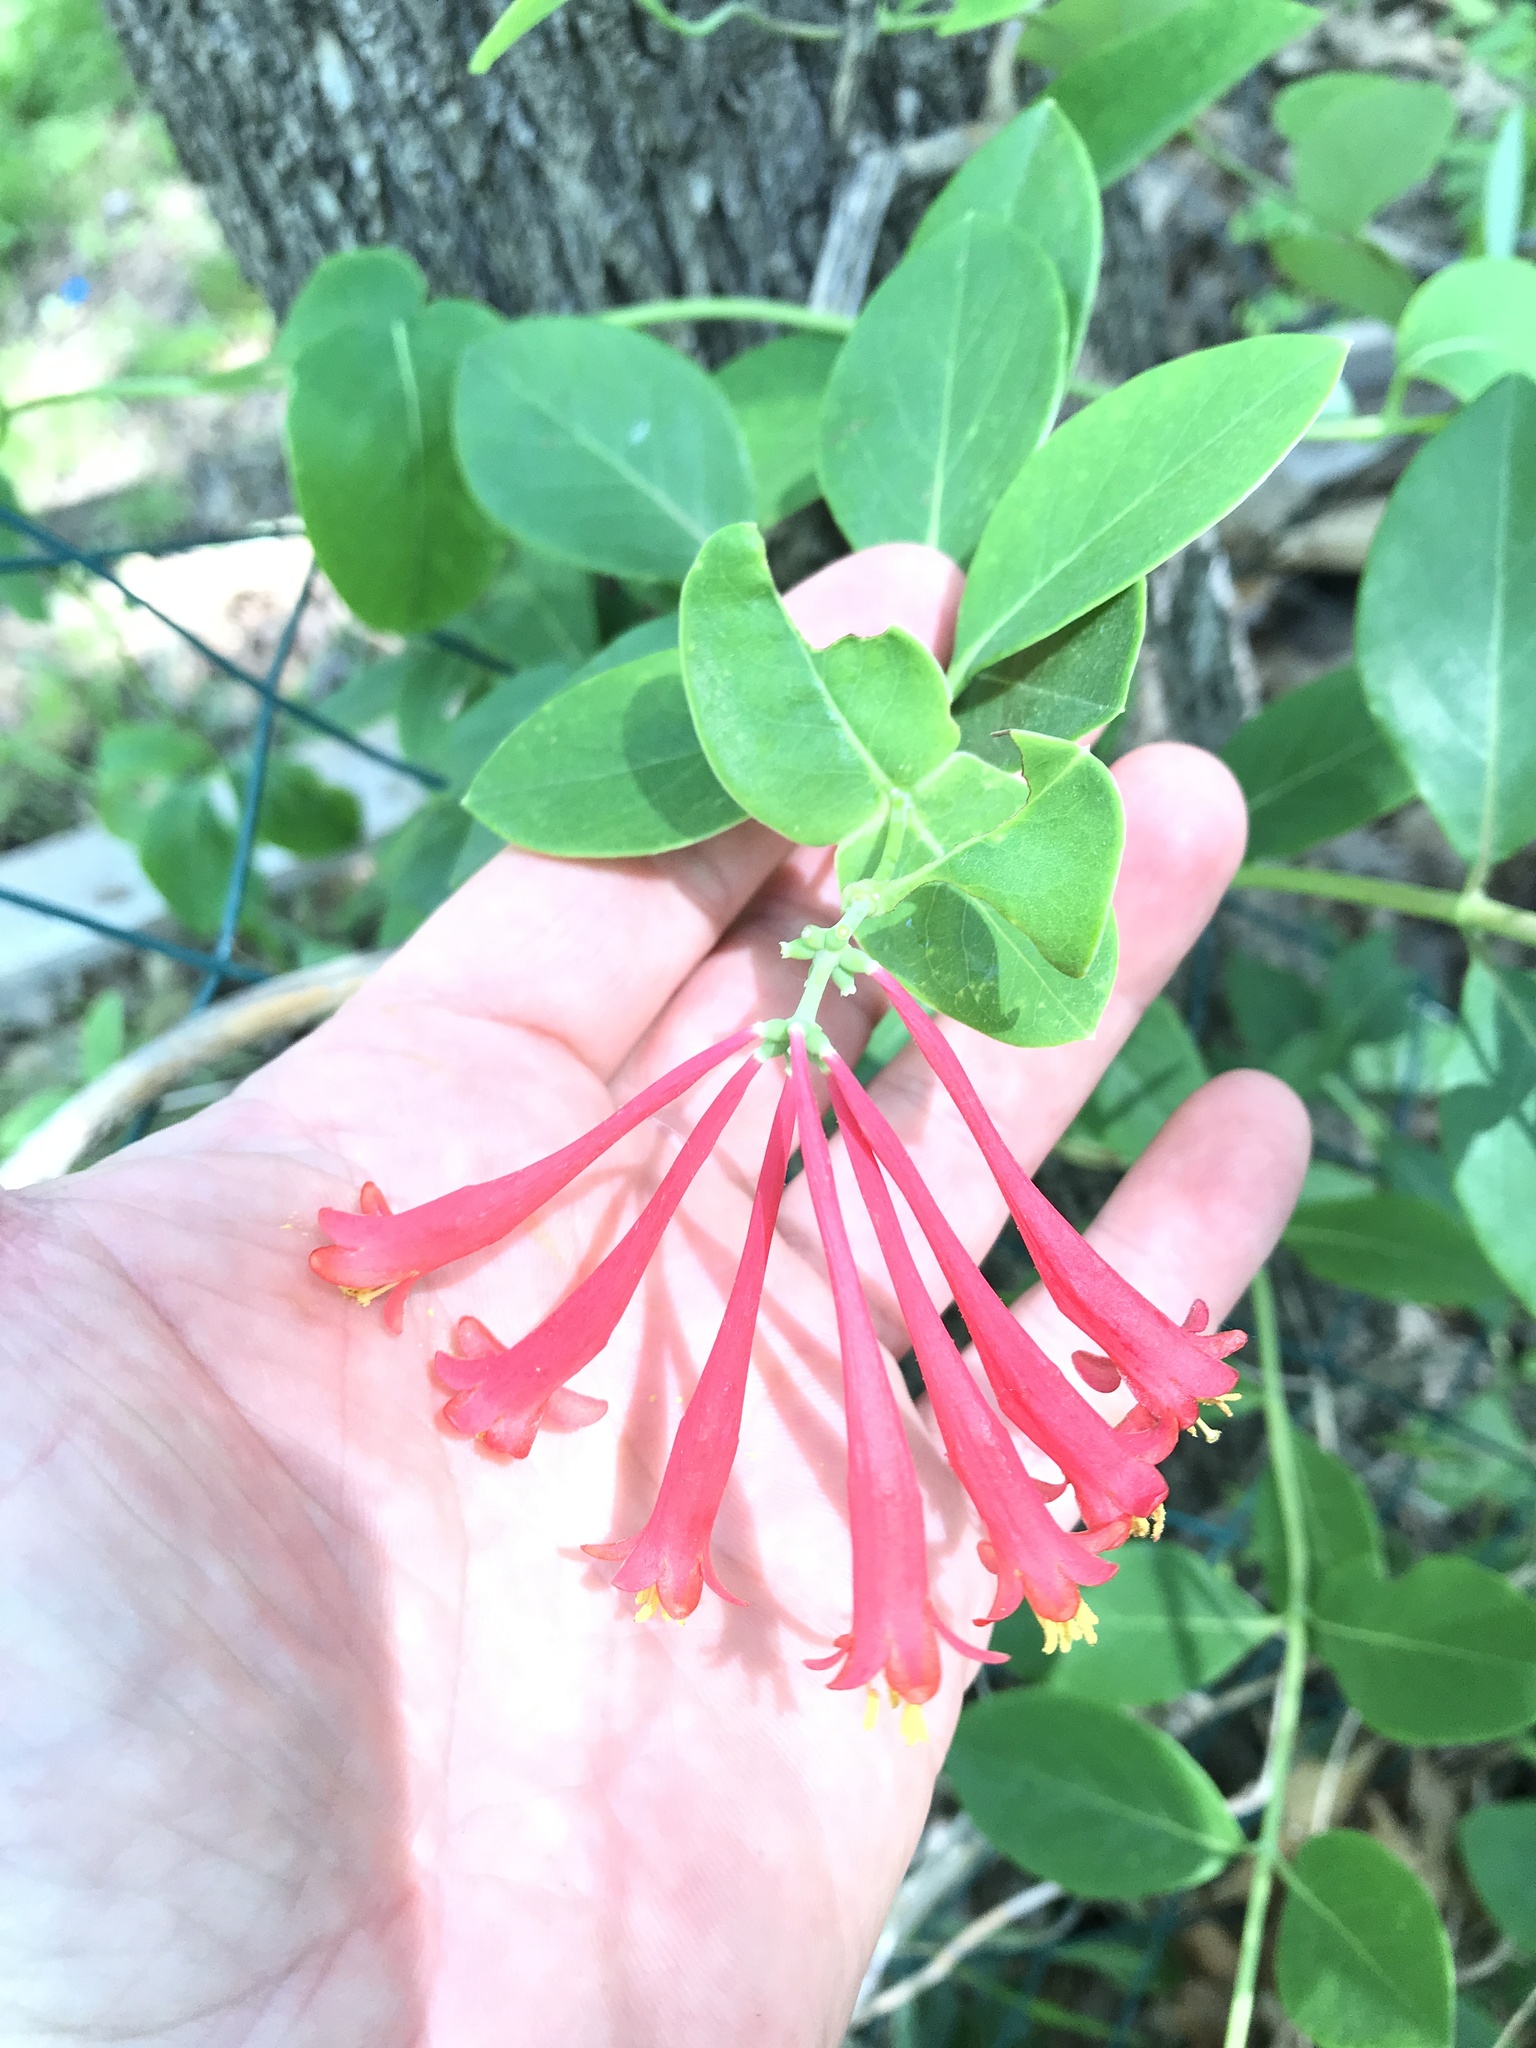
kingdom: Plantae
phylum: Tracheophyta
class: Magnoliopsida
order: Dipsacales
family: Caprifoliaceae
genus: Lonicera
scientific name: Lonicera sempervirens
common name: Coral honeysuckle
